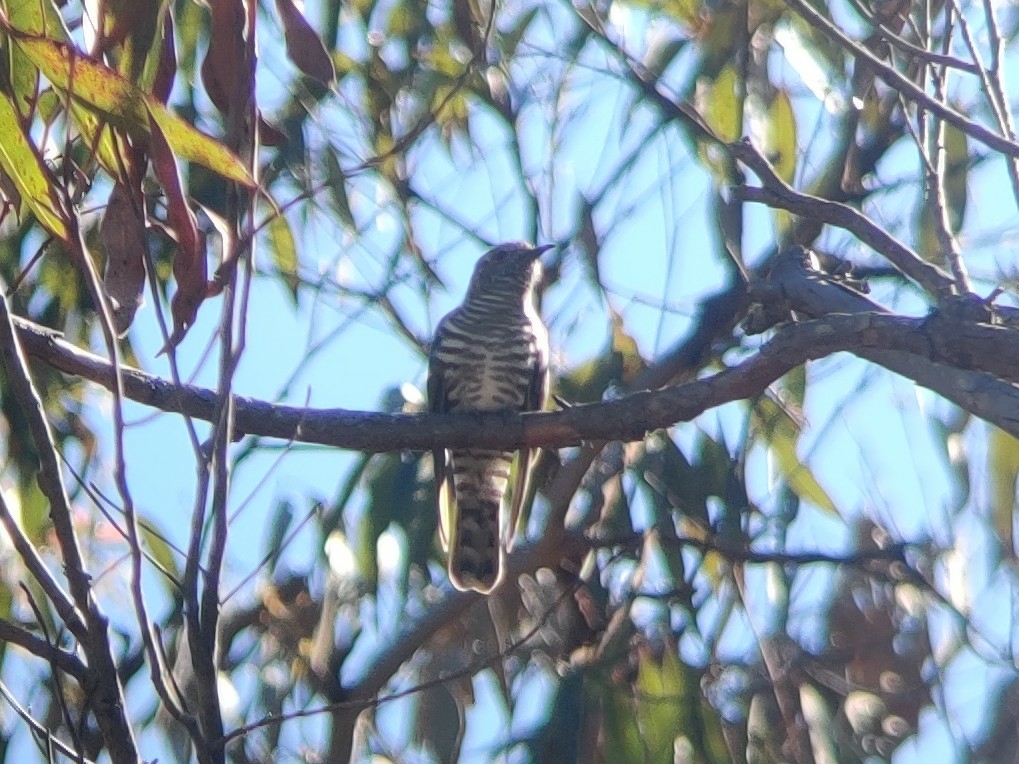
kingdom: Animalia
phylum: Chordata
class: Aves
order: Cuculiformes
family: Cuculidae
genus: Chrysococcyx
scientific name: Chrysococcyx lucidus
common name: Shining bronze cuckoo
